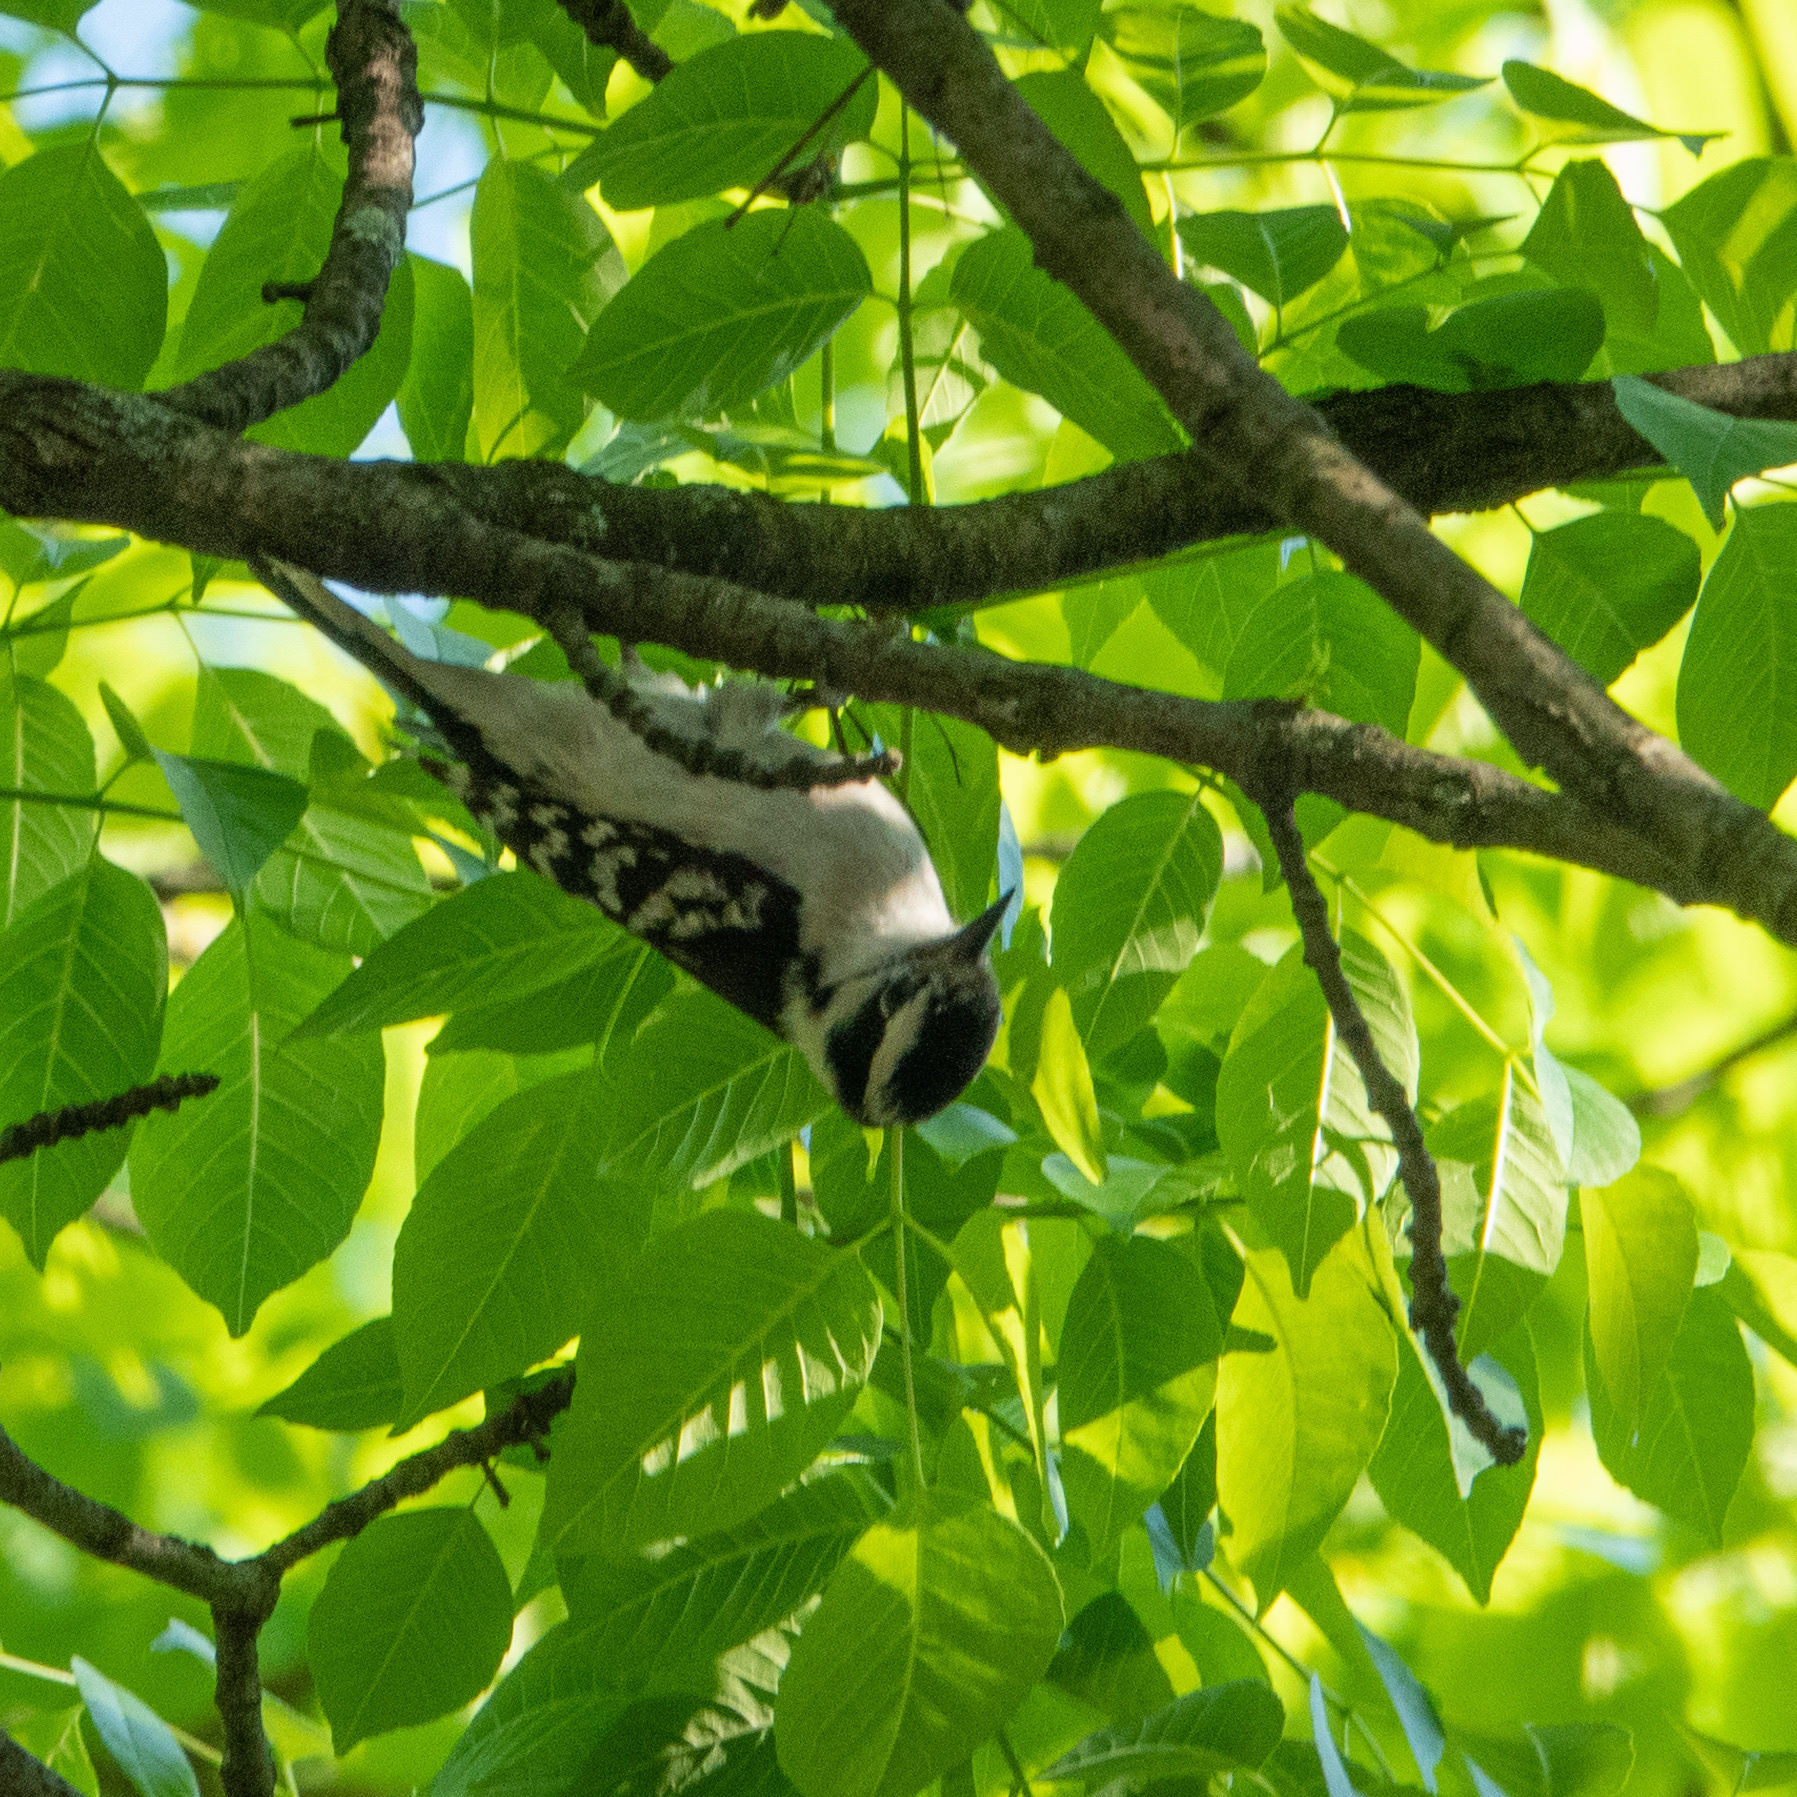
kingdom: Animalia
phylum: Chordata
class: Aves
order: Piciformes
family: Picidae
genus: Dryobates
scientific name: Dryobates pubescens
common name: Downy woodpecker
